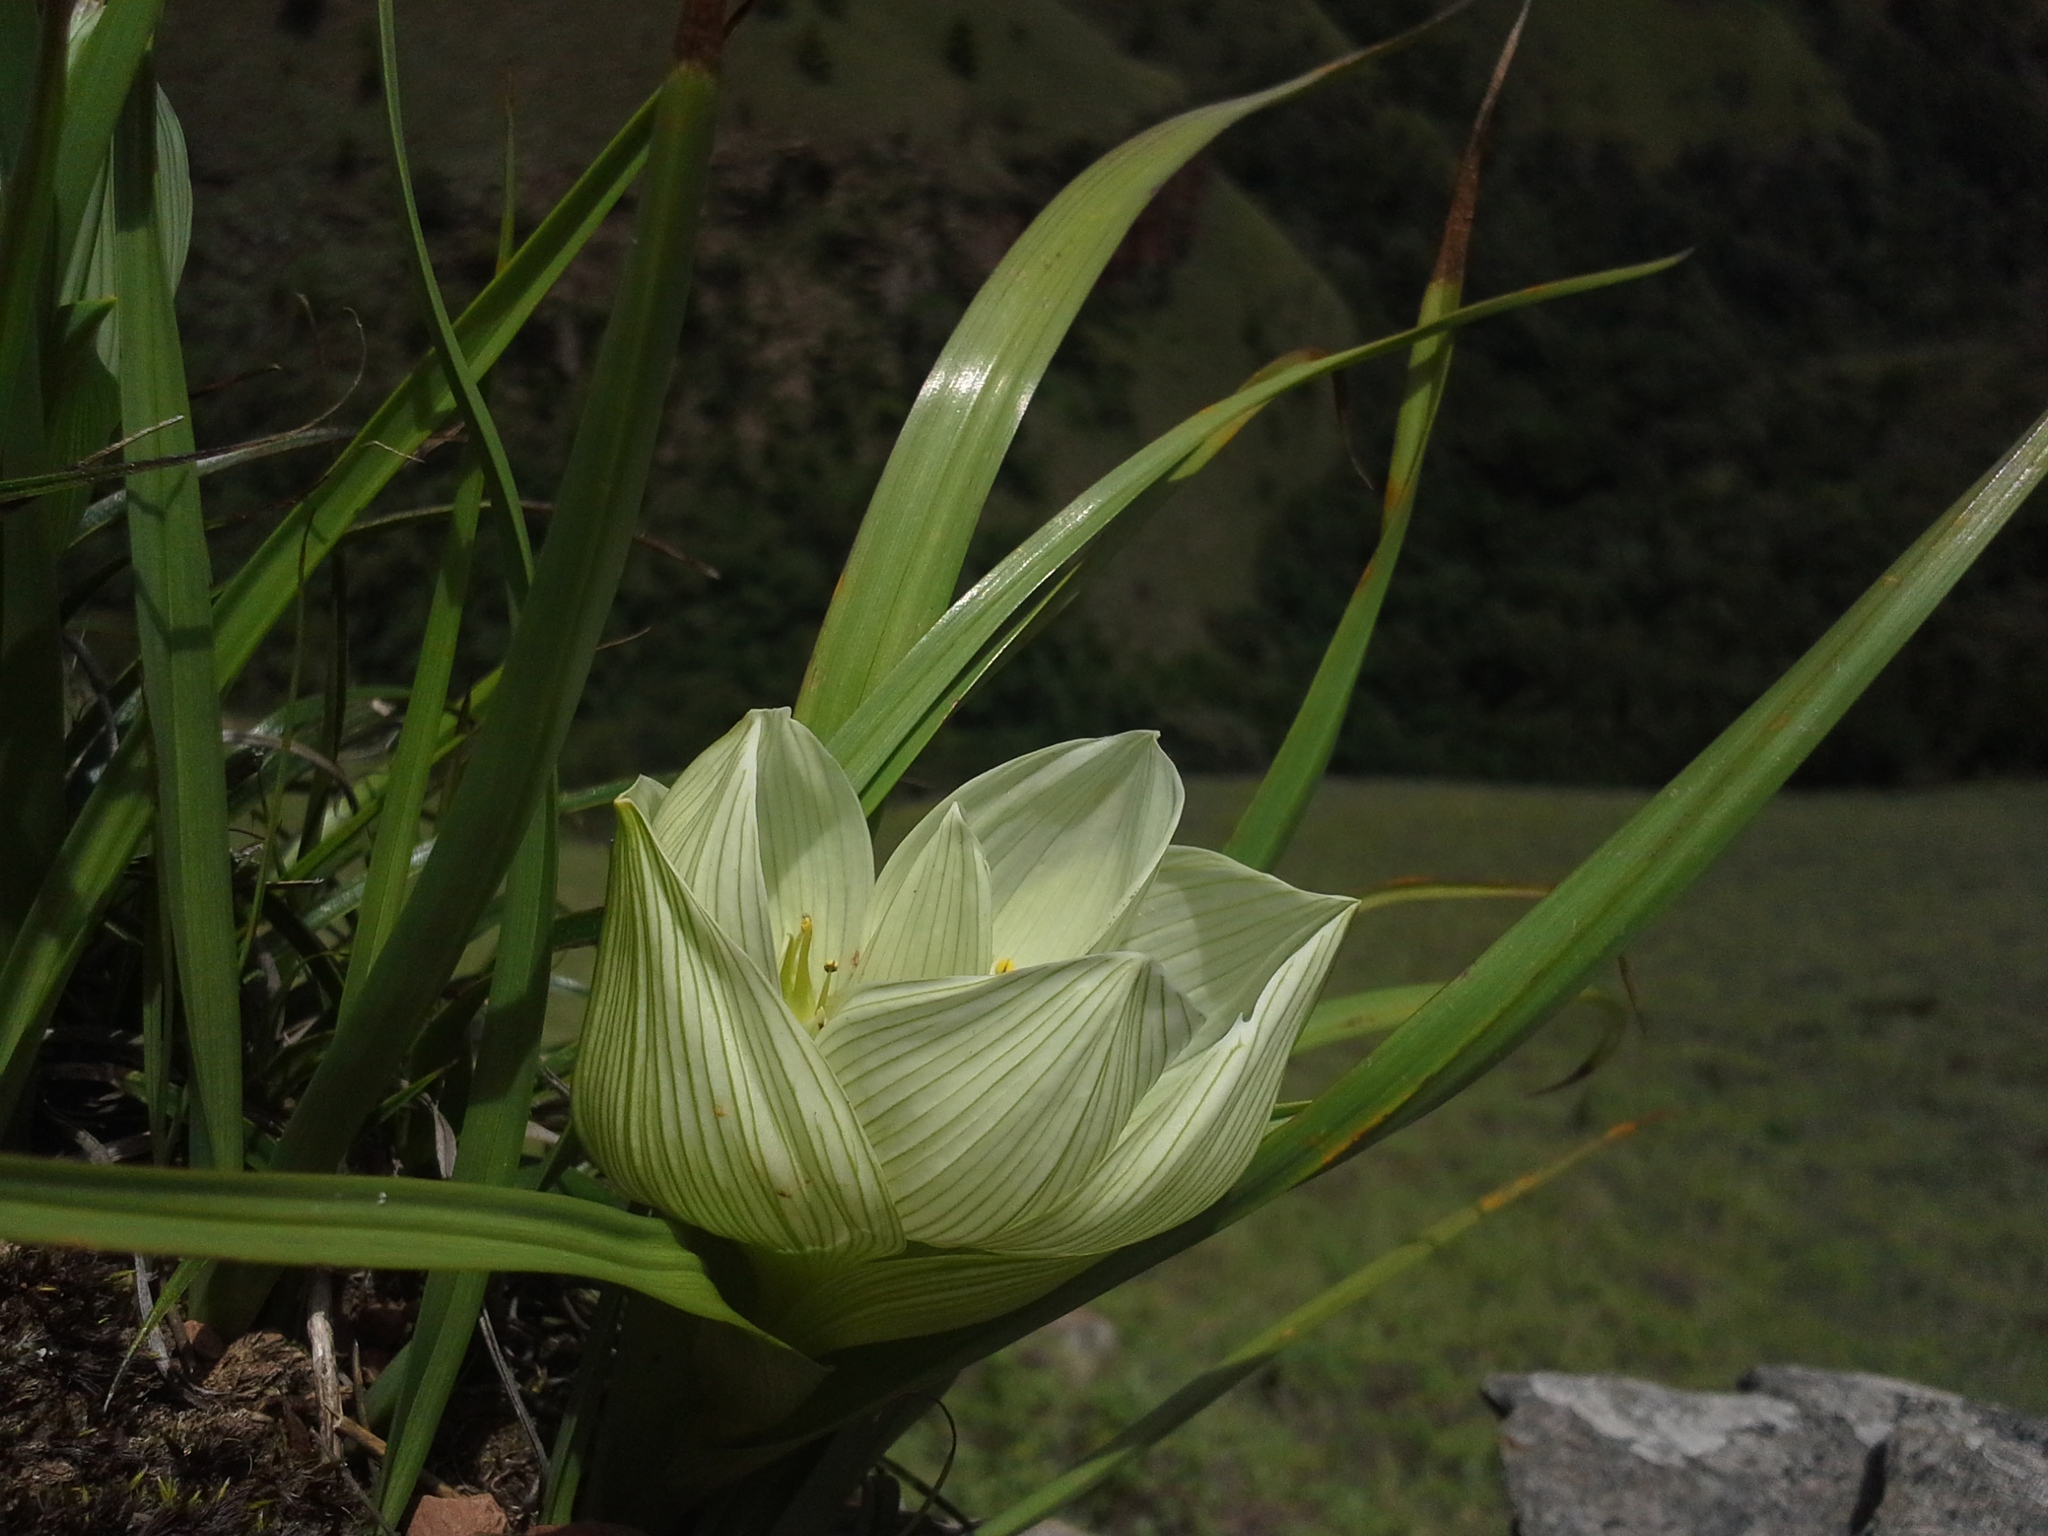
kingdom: Plantae
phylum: Tracheophyta
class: Liliopsida
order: Liliales
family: Colchicaceae
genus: Colchicum
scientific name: Colchicum melanthioides
